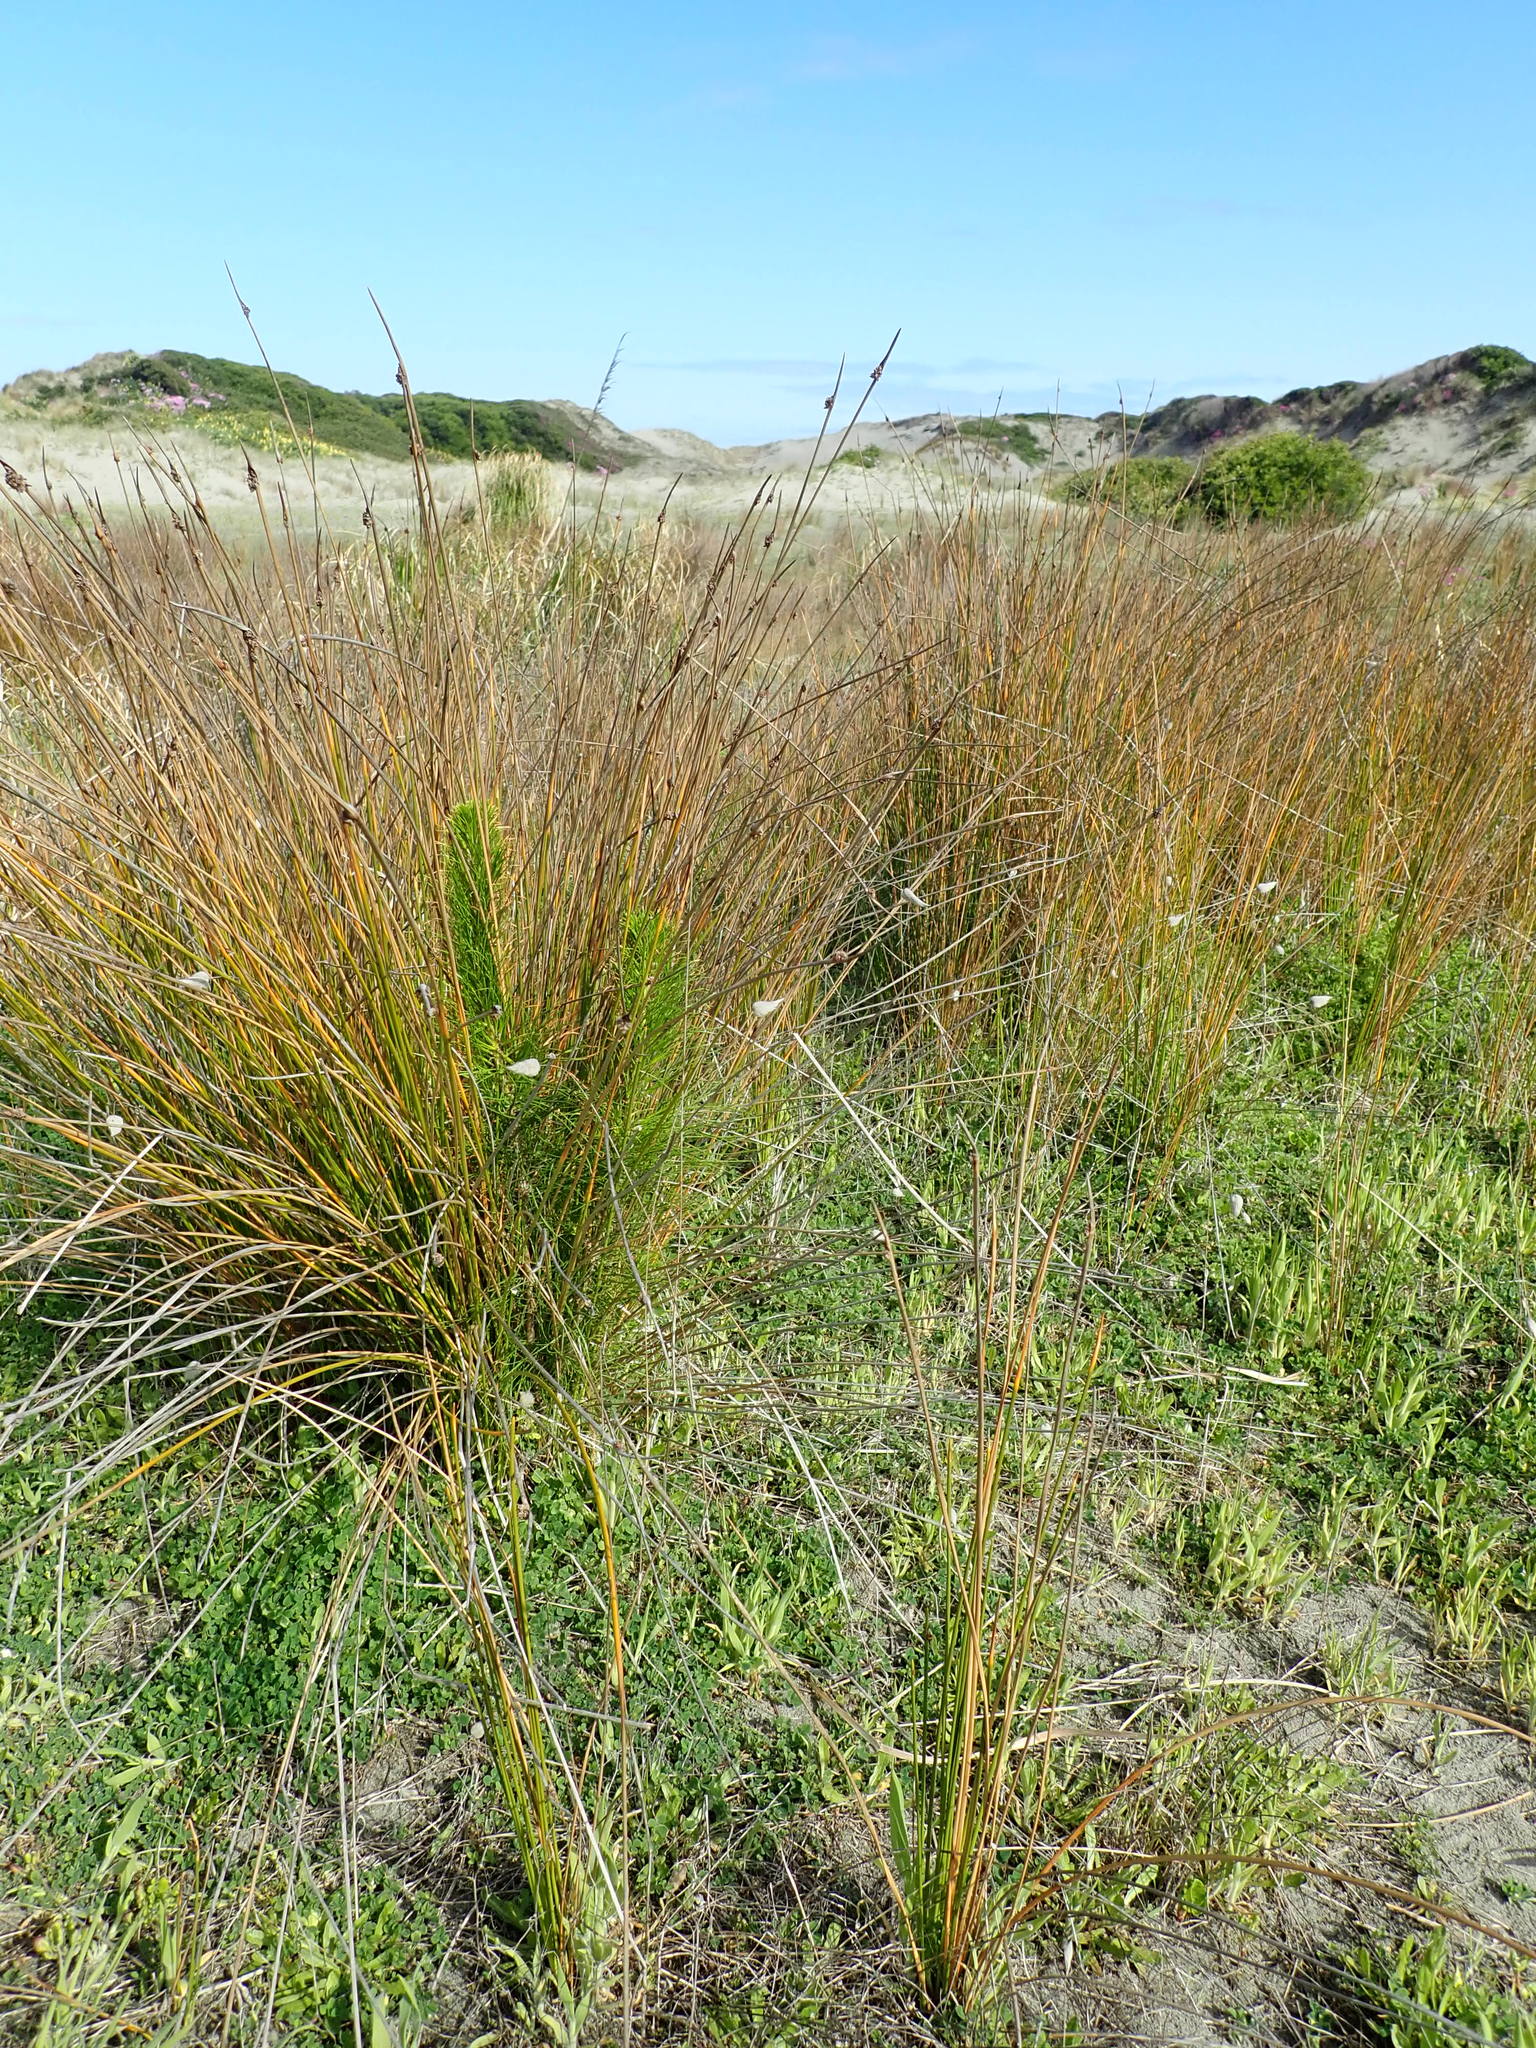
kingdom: Plantae
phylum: Tracheophyta
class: Pinopsida
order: Pinales
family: Pinaceae
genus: Pinus
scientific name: Pinus radiata
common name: Monterey pine
